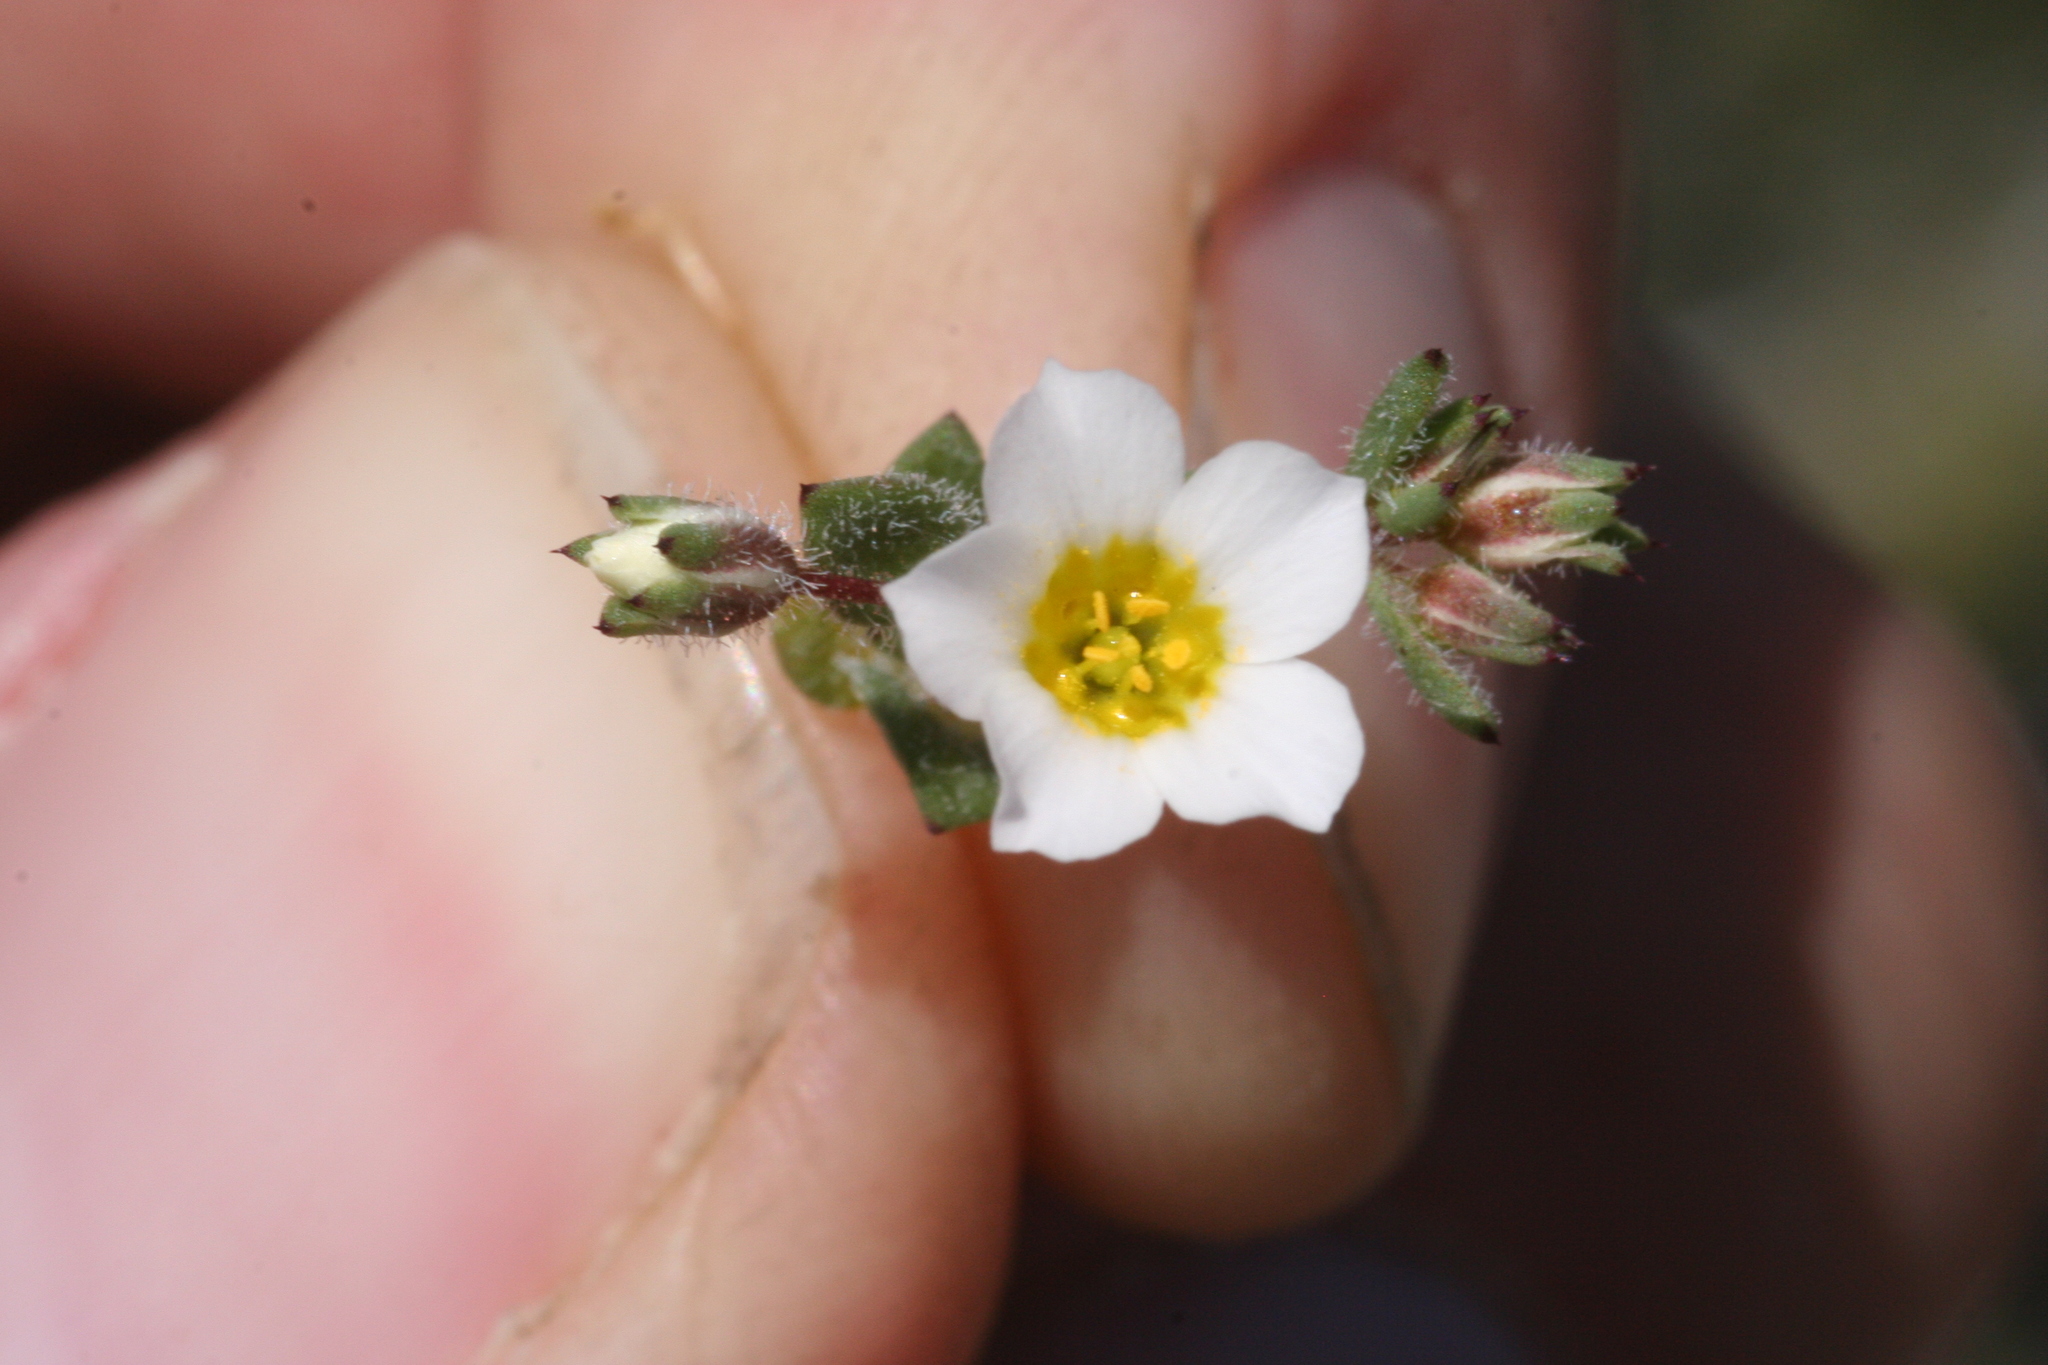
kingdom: Plantae
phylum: Tracheophyta
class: Magnoliopsida
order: Ericales
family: Polemoniaceae
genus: Linanthus
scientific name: Linanthus inyoensis
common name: Inyo gilia
